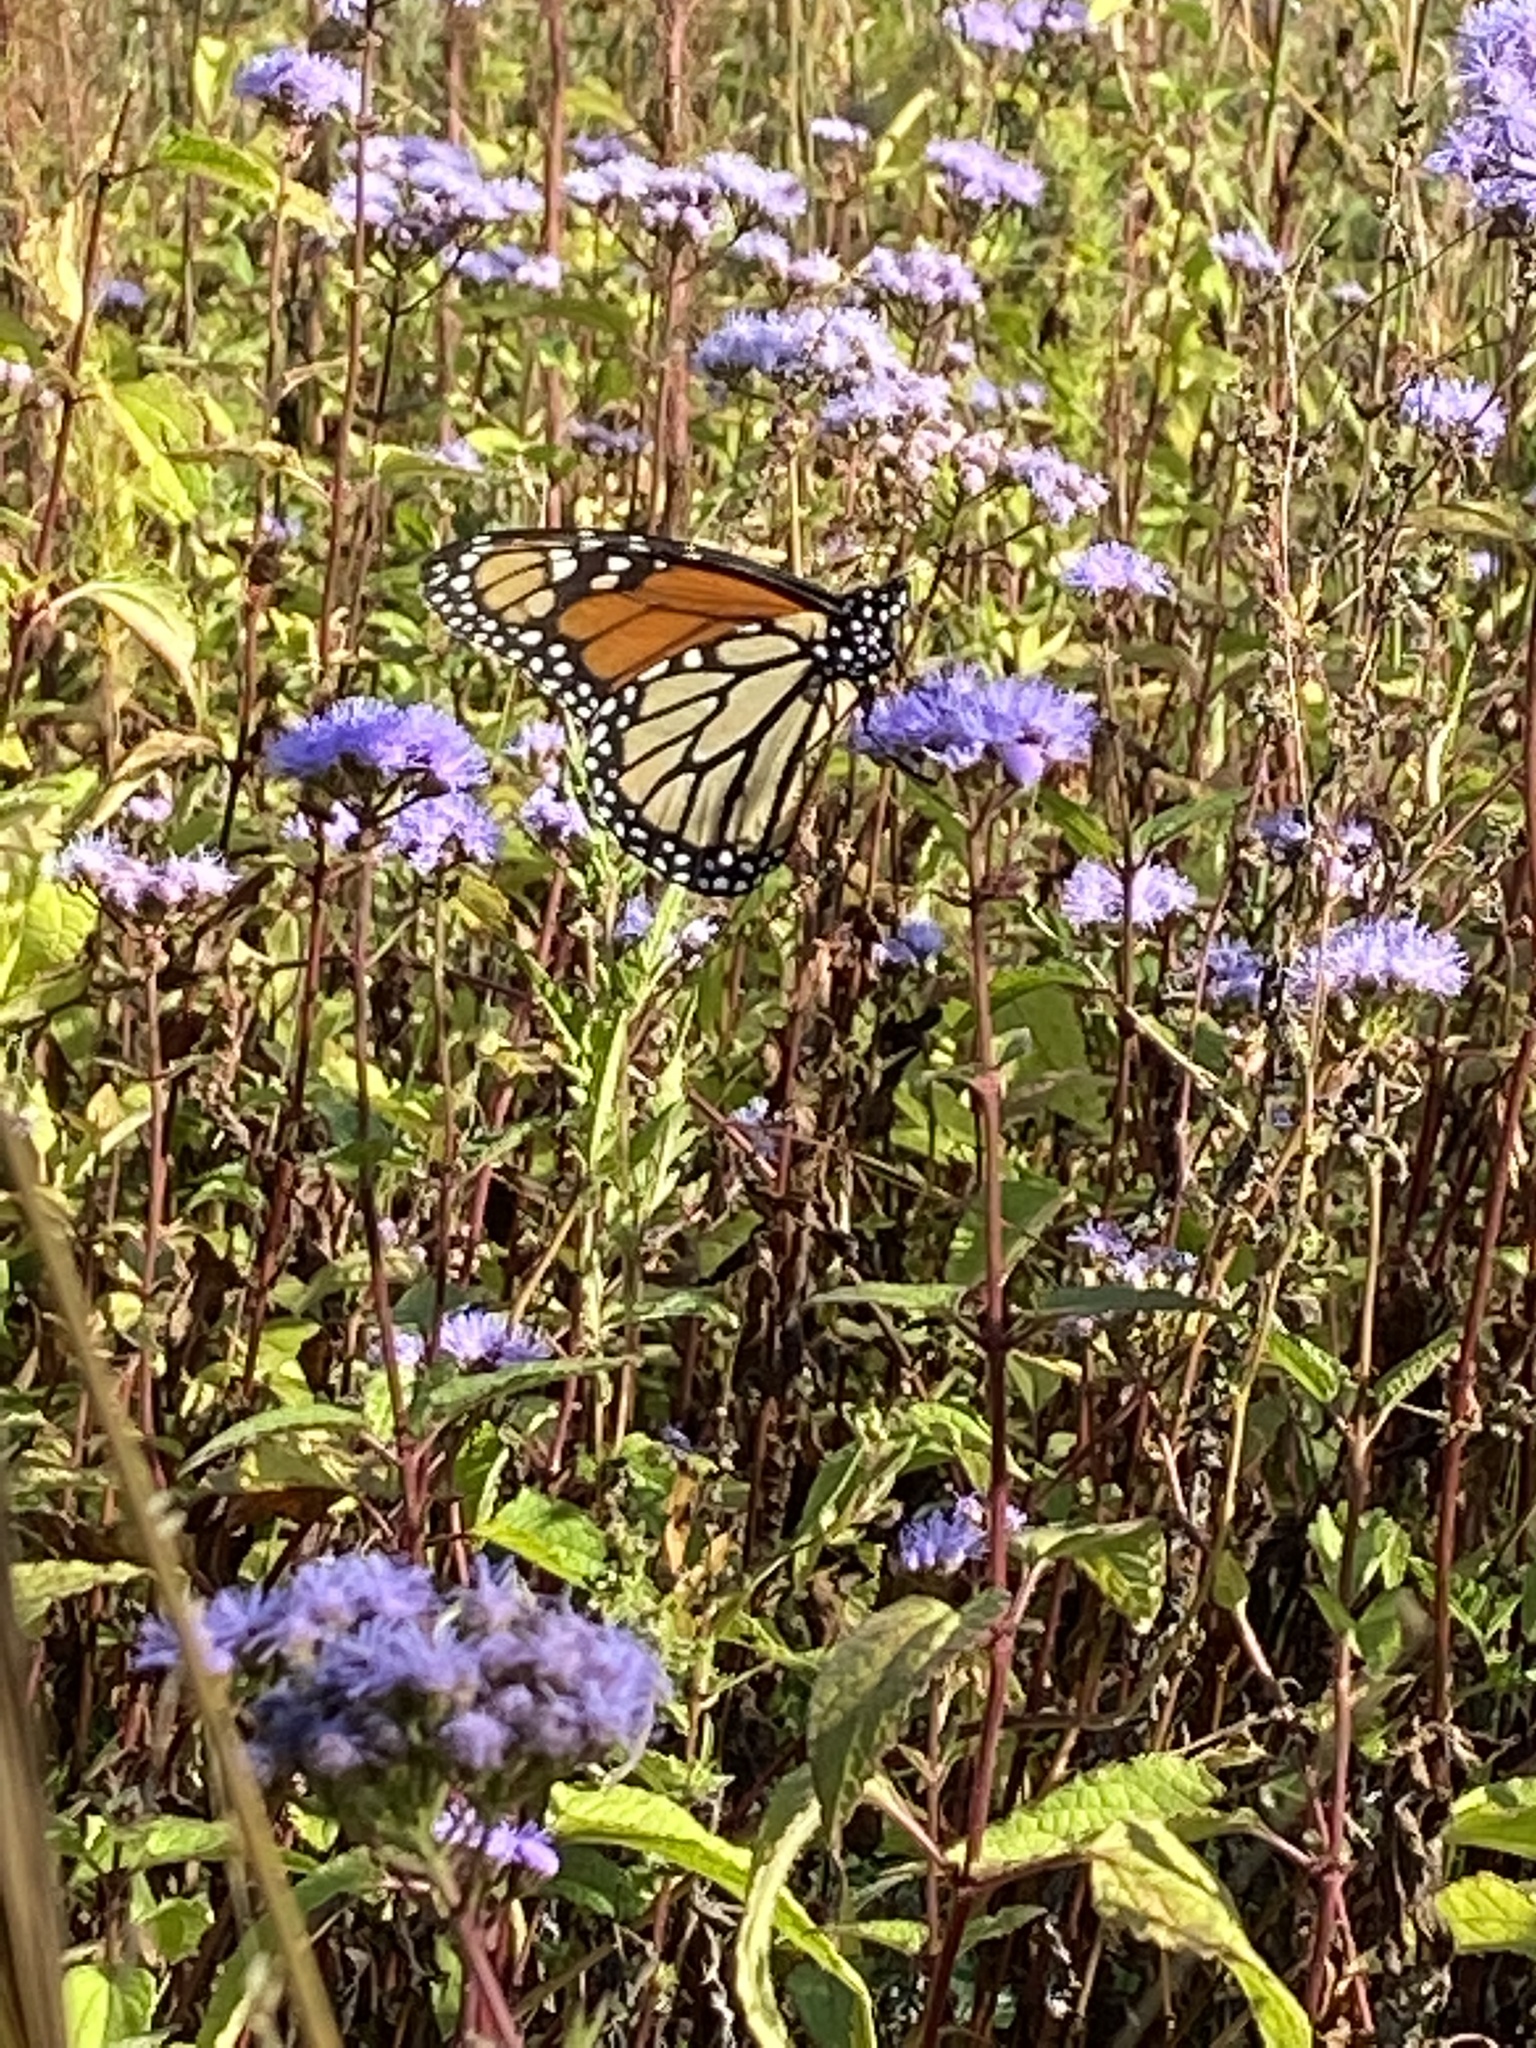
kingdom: Animalia
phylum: Arthropoda
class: Insecta
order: Lepidoptera
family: Nymphalidae
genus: Danaus
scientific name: Danaus plexippus
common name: Monarch
